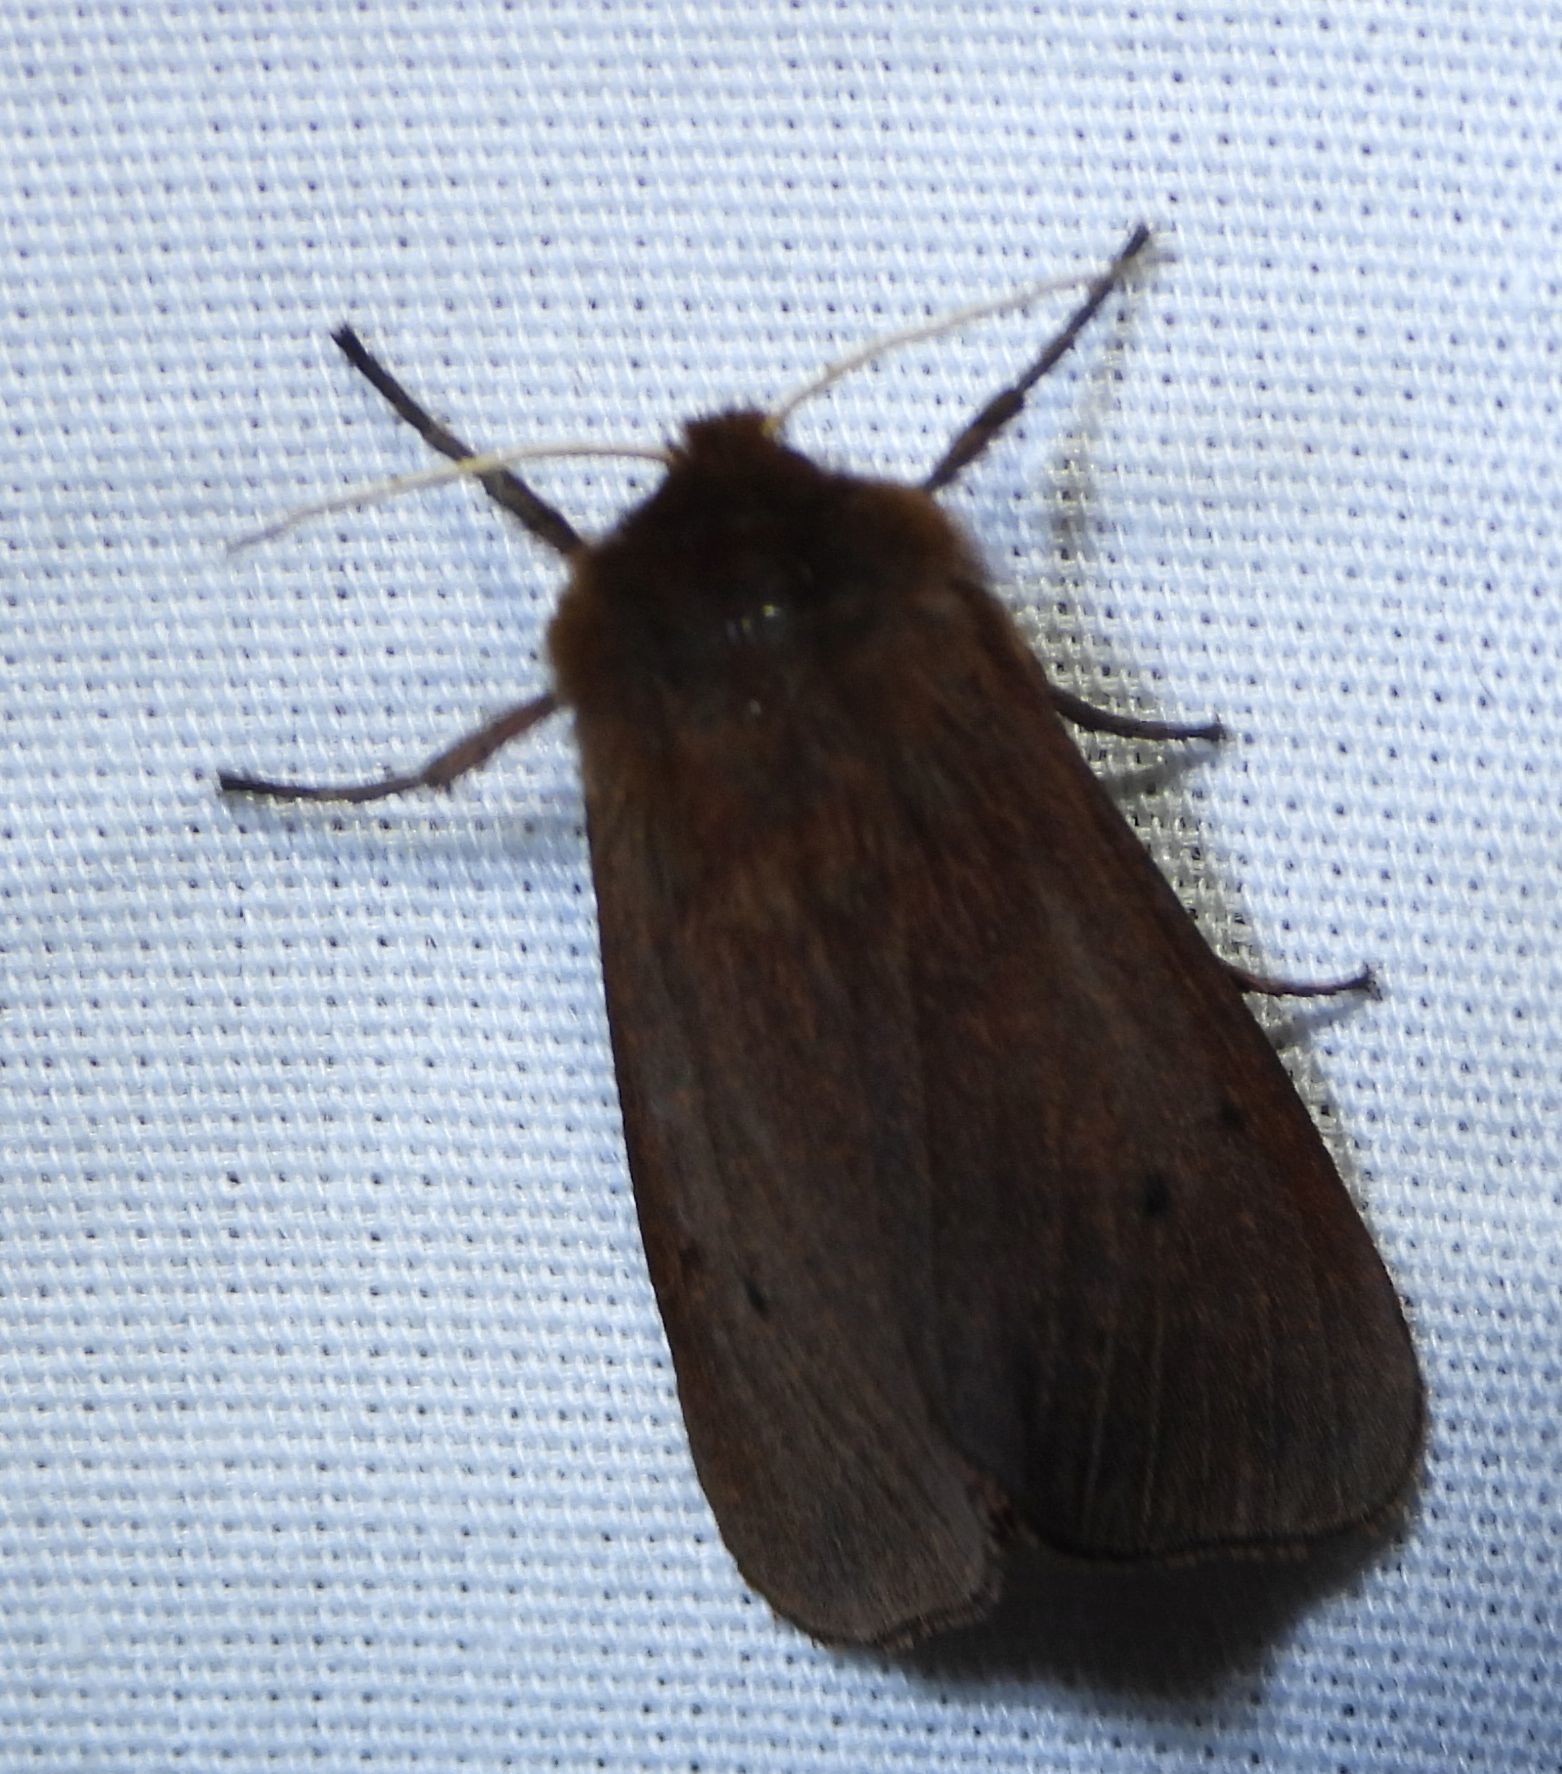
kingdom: Animalia
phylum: Arthropoda
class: Insecta
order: Lepidoptera
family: Erebidae
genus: Phragmatobia
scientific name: Phragmatobia fuliginosa
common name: Ruby tiger
